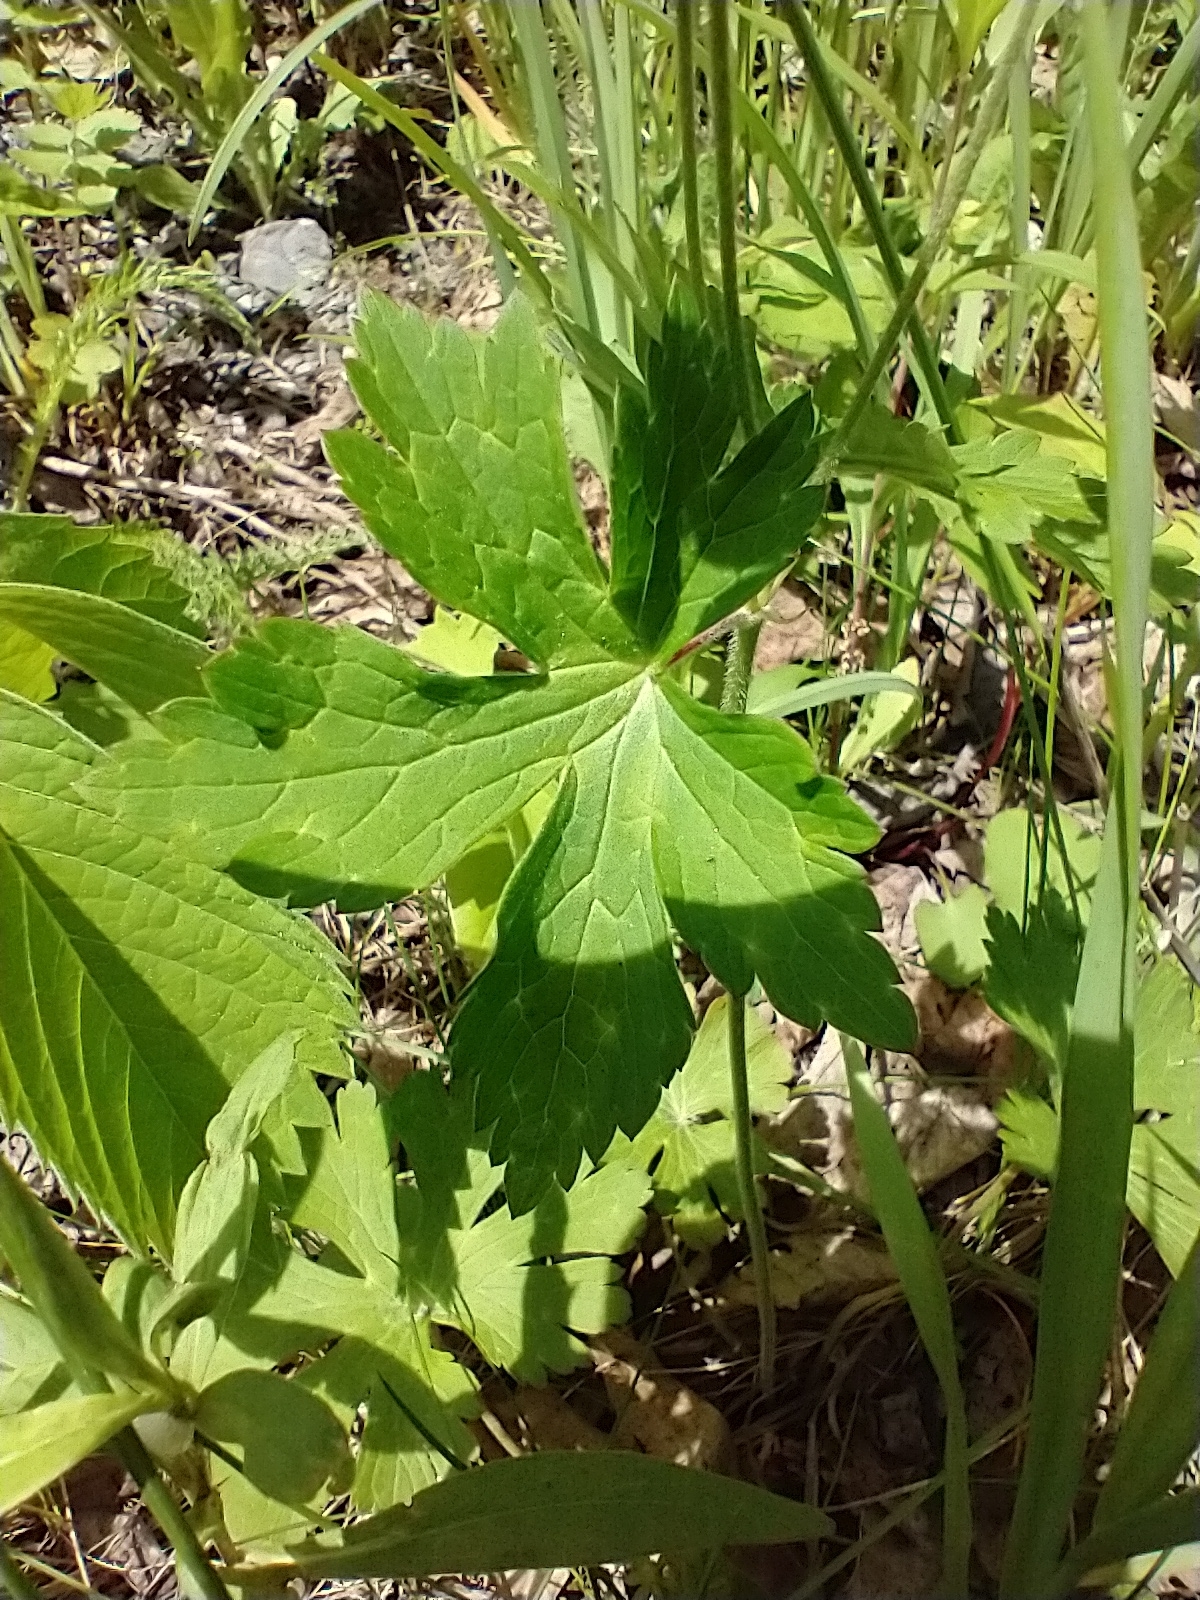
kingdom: Plantae
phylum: Tracheophyta
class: Magnoliopsida
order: Geraniales
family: Geraniaceae
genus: Geranium
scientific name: Geranium maculatum
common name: Spotted geranium
